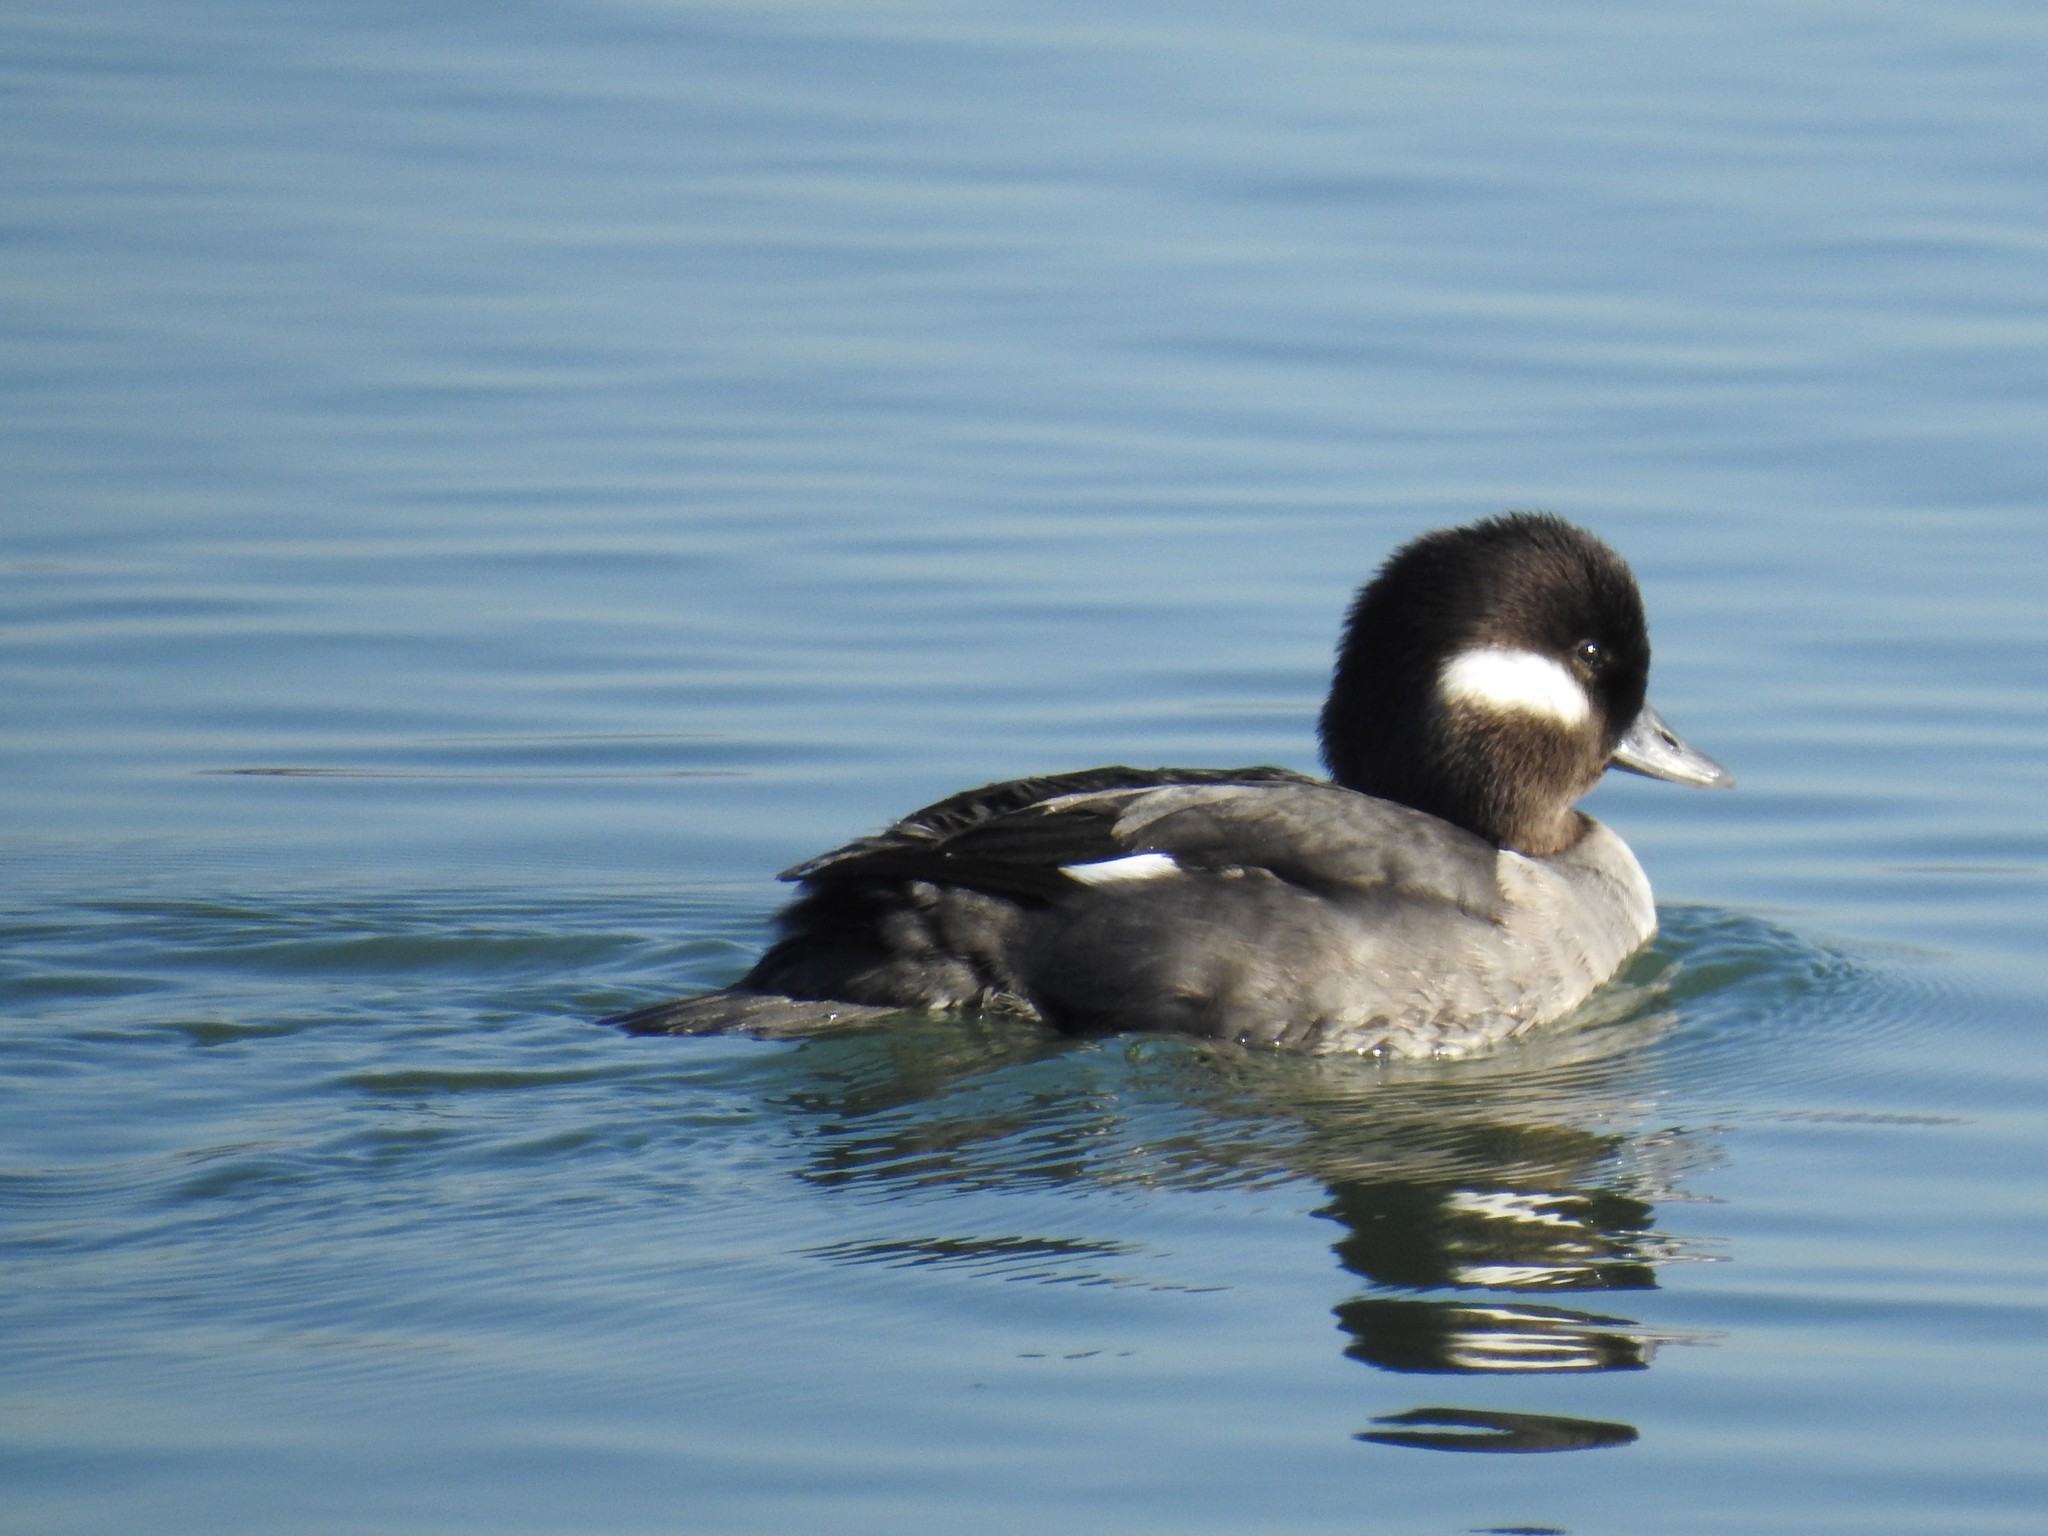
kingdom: Animalia
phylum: Chordata
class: Aves
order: Anseriformes
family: Anatidae
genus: Bucephala
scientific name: Bucephala albeola
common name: Bufflehead
